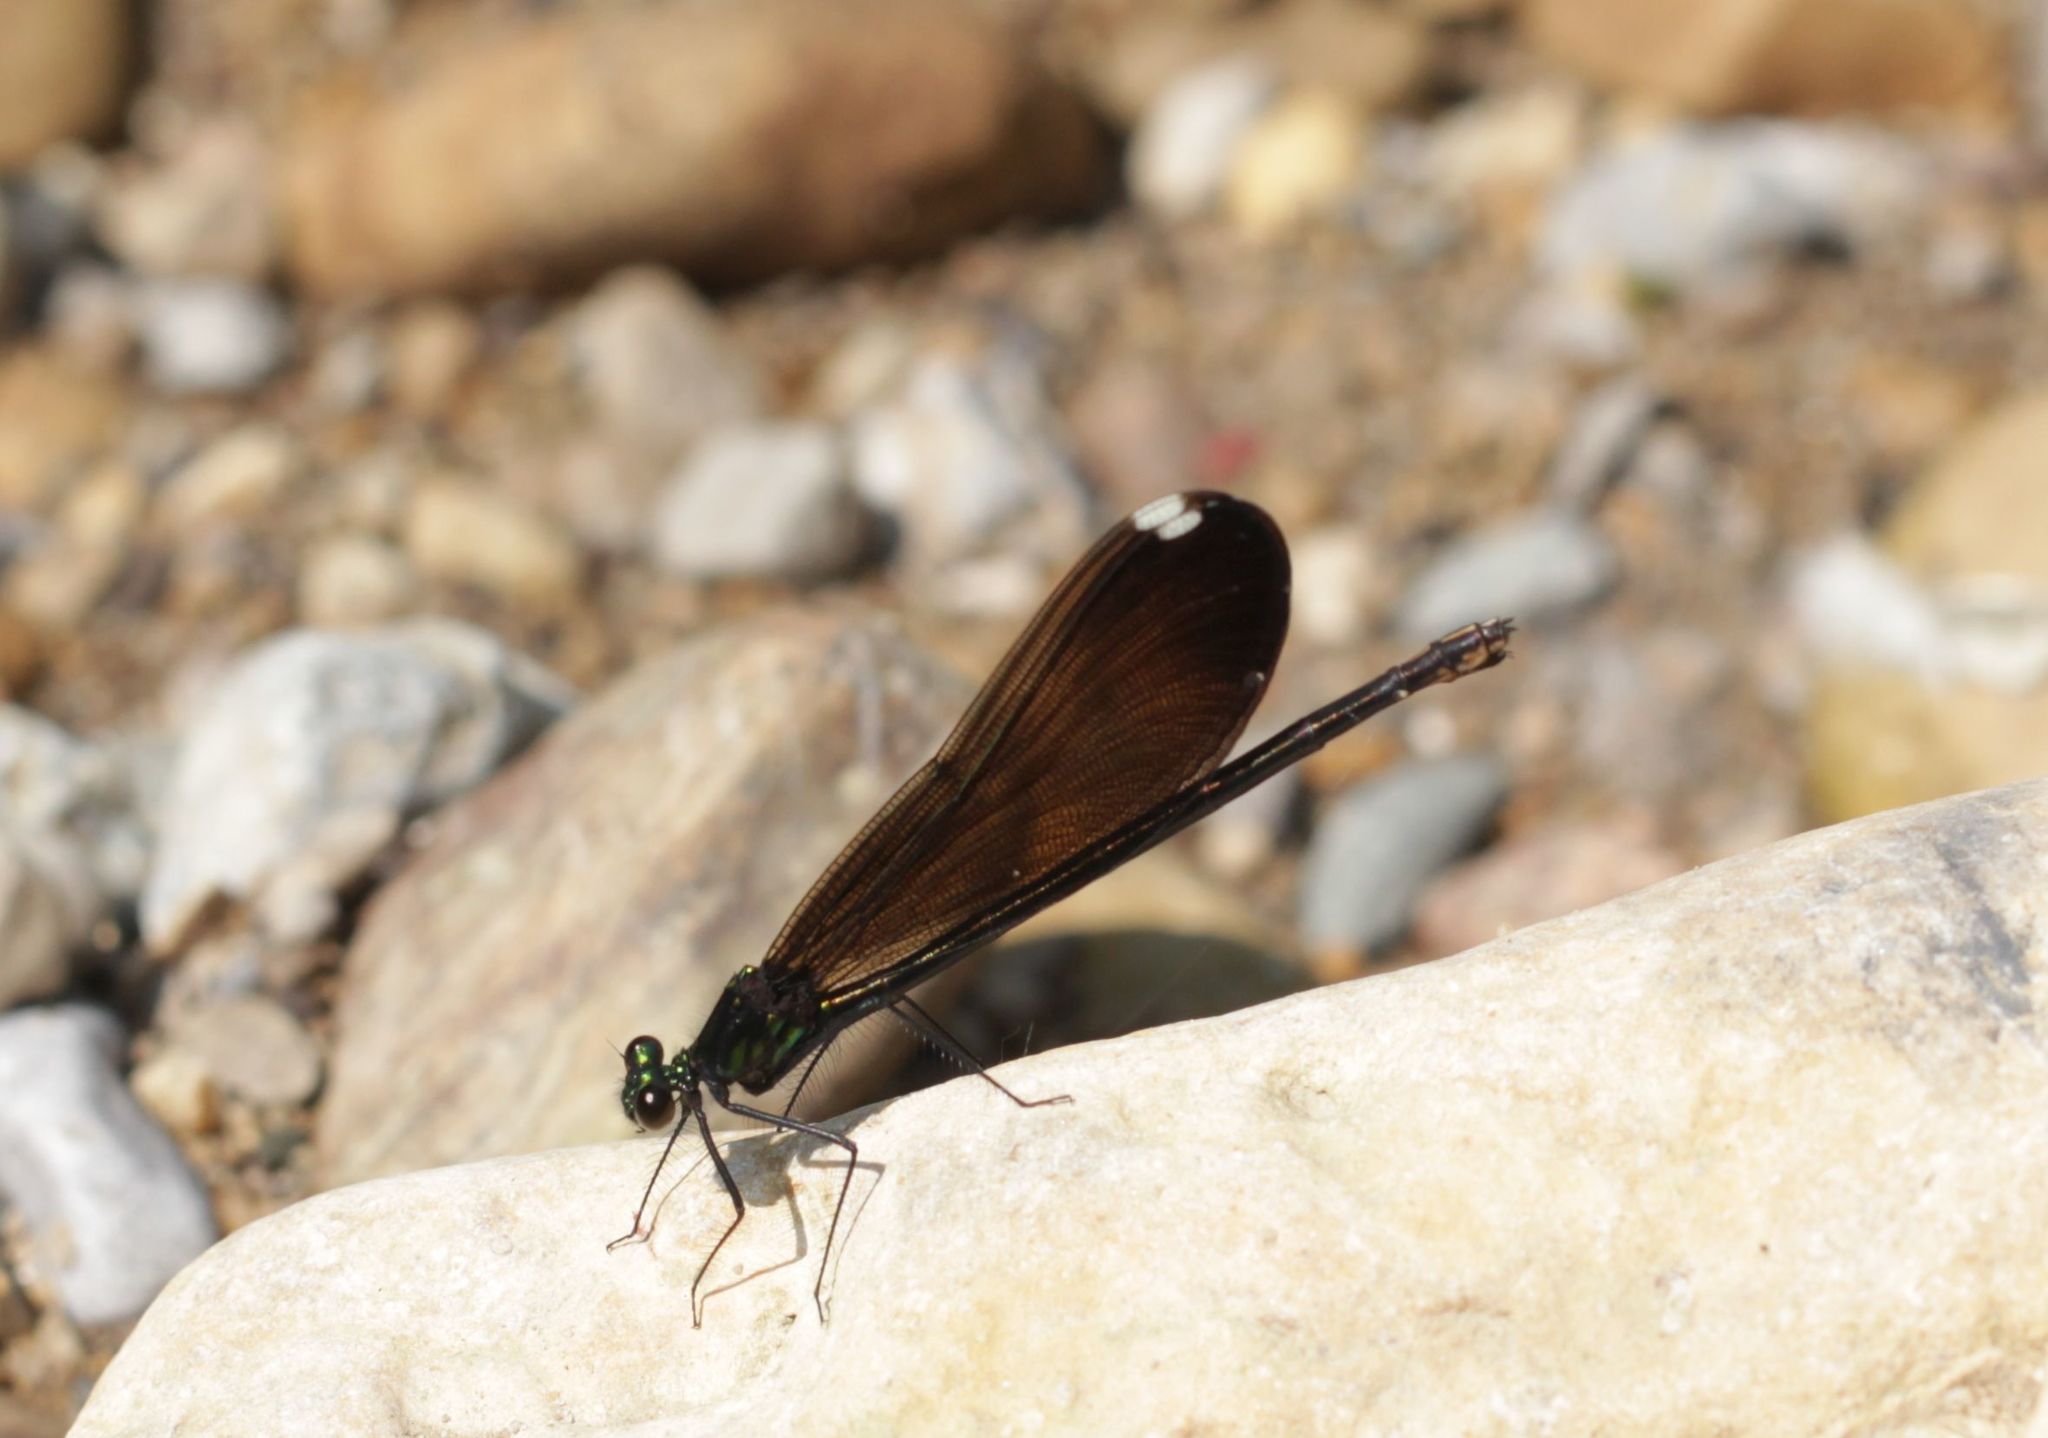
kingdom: Animalia
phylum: Arthropoda
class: Insecta
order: Odonata
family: Calopterygidae
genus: Calopteryx
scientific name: Calopteryx maculata
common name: Ebony jewelwing
